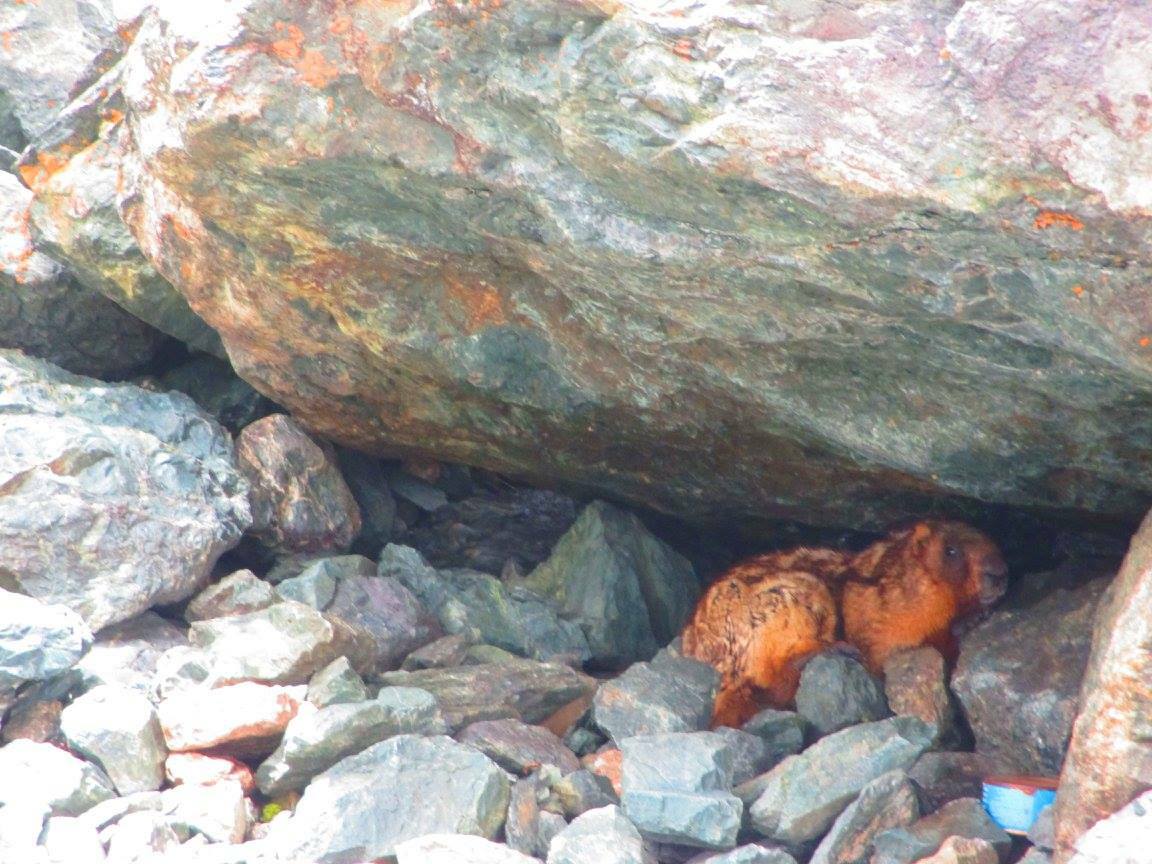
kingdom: Animalia
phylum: Chordata
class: Mammalia
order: Rodentia
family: Sciuridae
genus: Marmota
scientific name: Marmota baibacina
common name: Gray marmot
